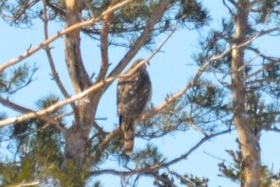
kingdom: Animalia
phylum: Chordata
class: Aves
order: Accipitriformes
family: Accipitridae
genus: Accipiter
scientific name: Accipiter gentilis
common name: Northern goshawk
